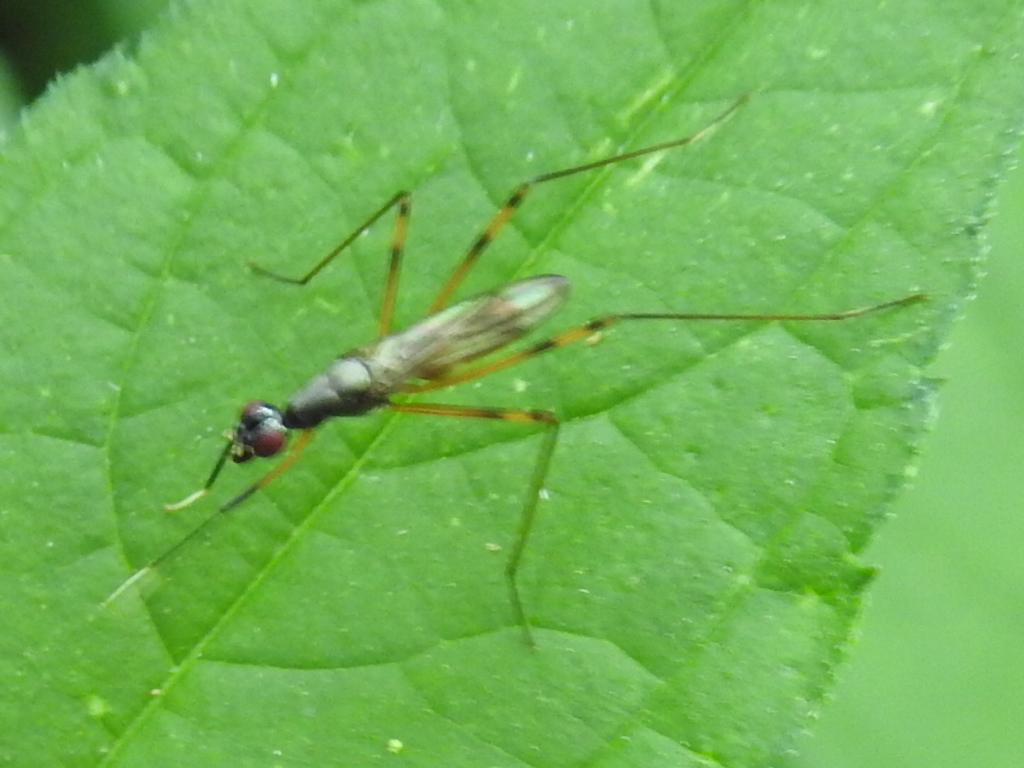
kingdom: Animalia
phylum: Arthropoda
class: Insecta
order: Diptera
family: Micropezidae
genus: Rainieria
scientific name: Rainieria antennaepes
